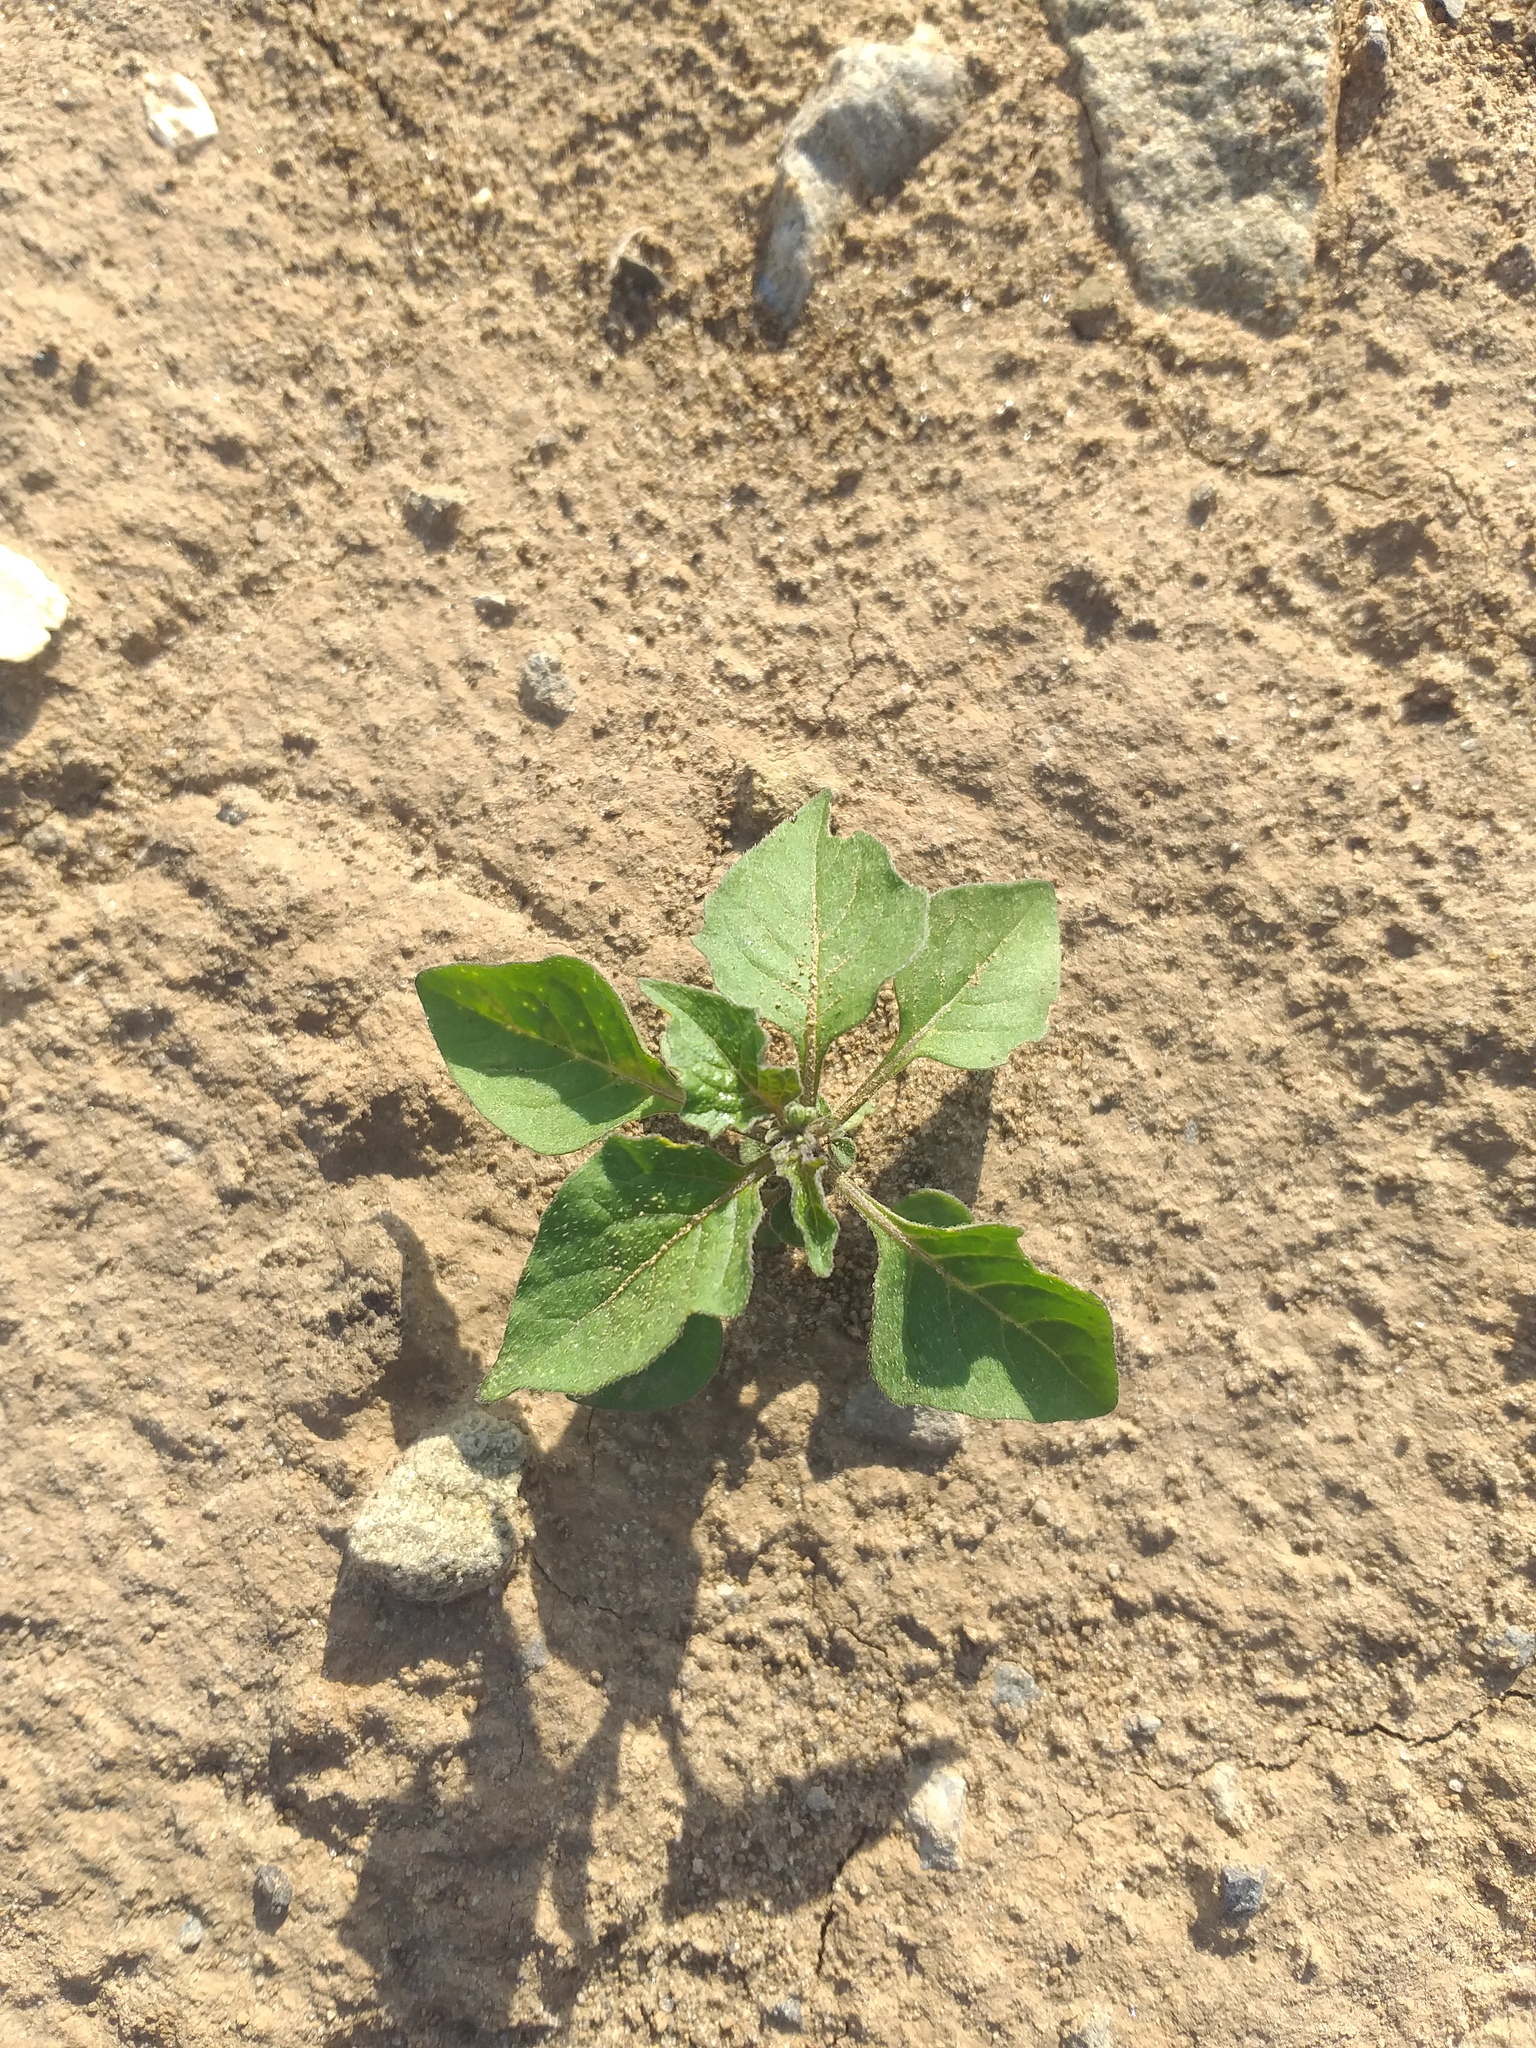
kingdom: Plantae
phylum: Tracheophyta
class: Magnoliopsida
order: Solanales
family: Solanaceae
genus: Solanum
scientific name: Solanum nigrum
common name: Black nightshade
